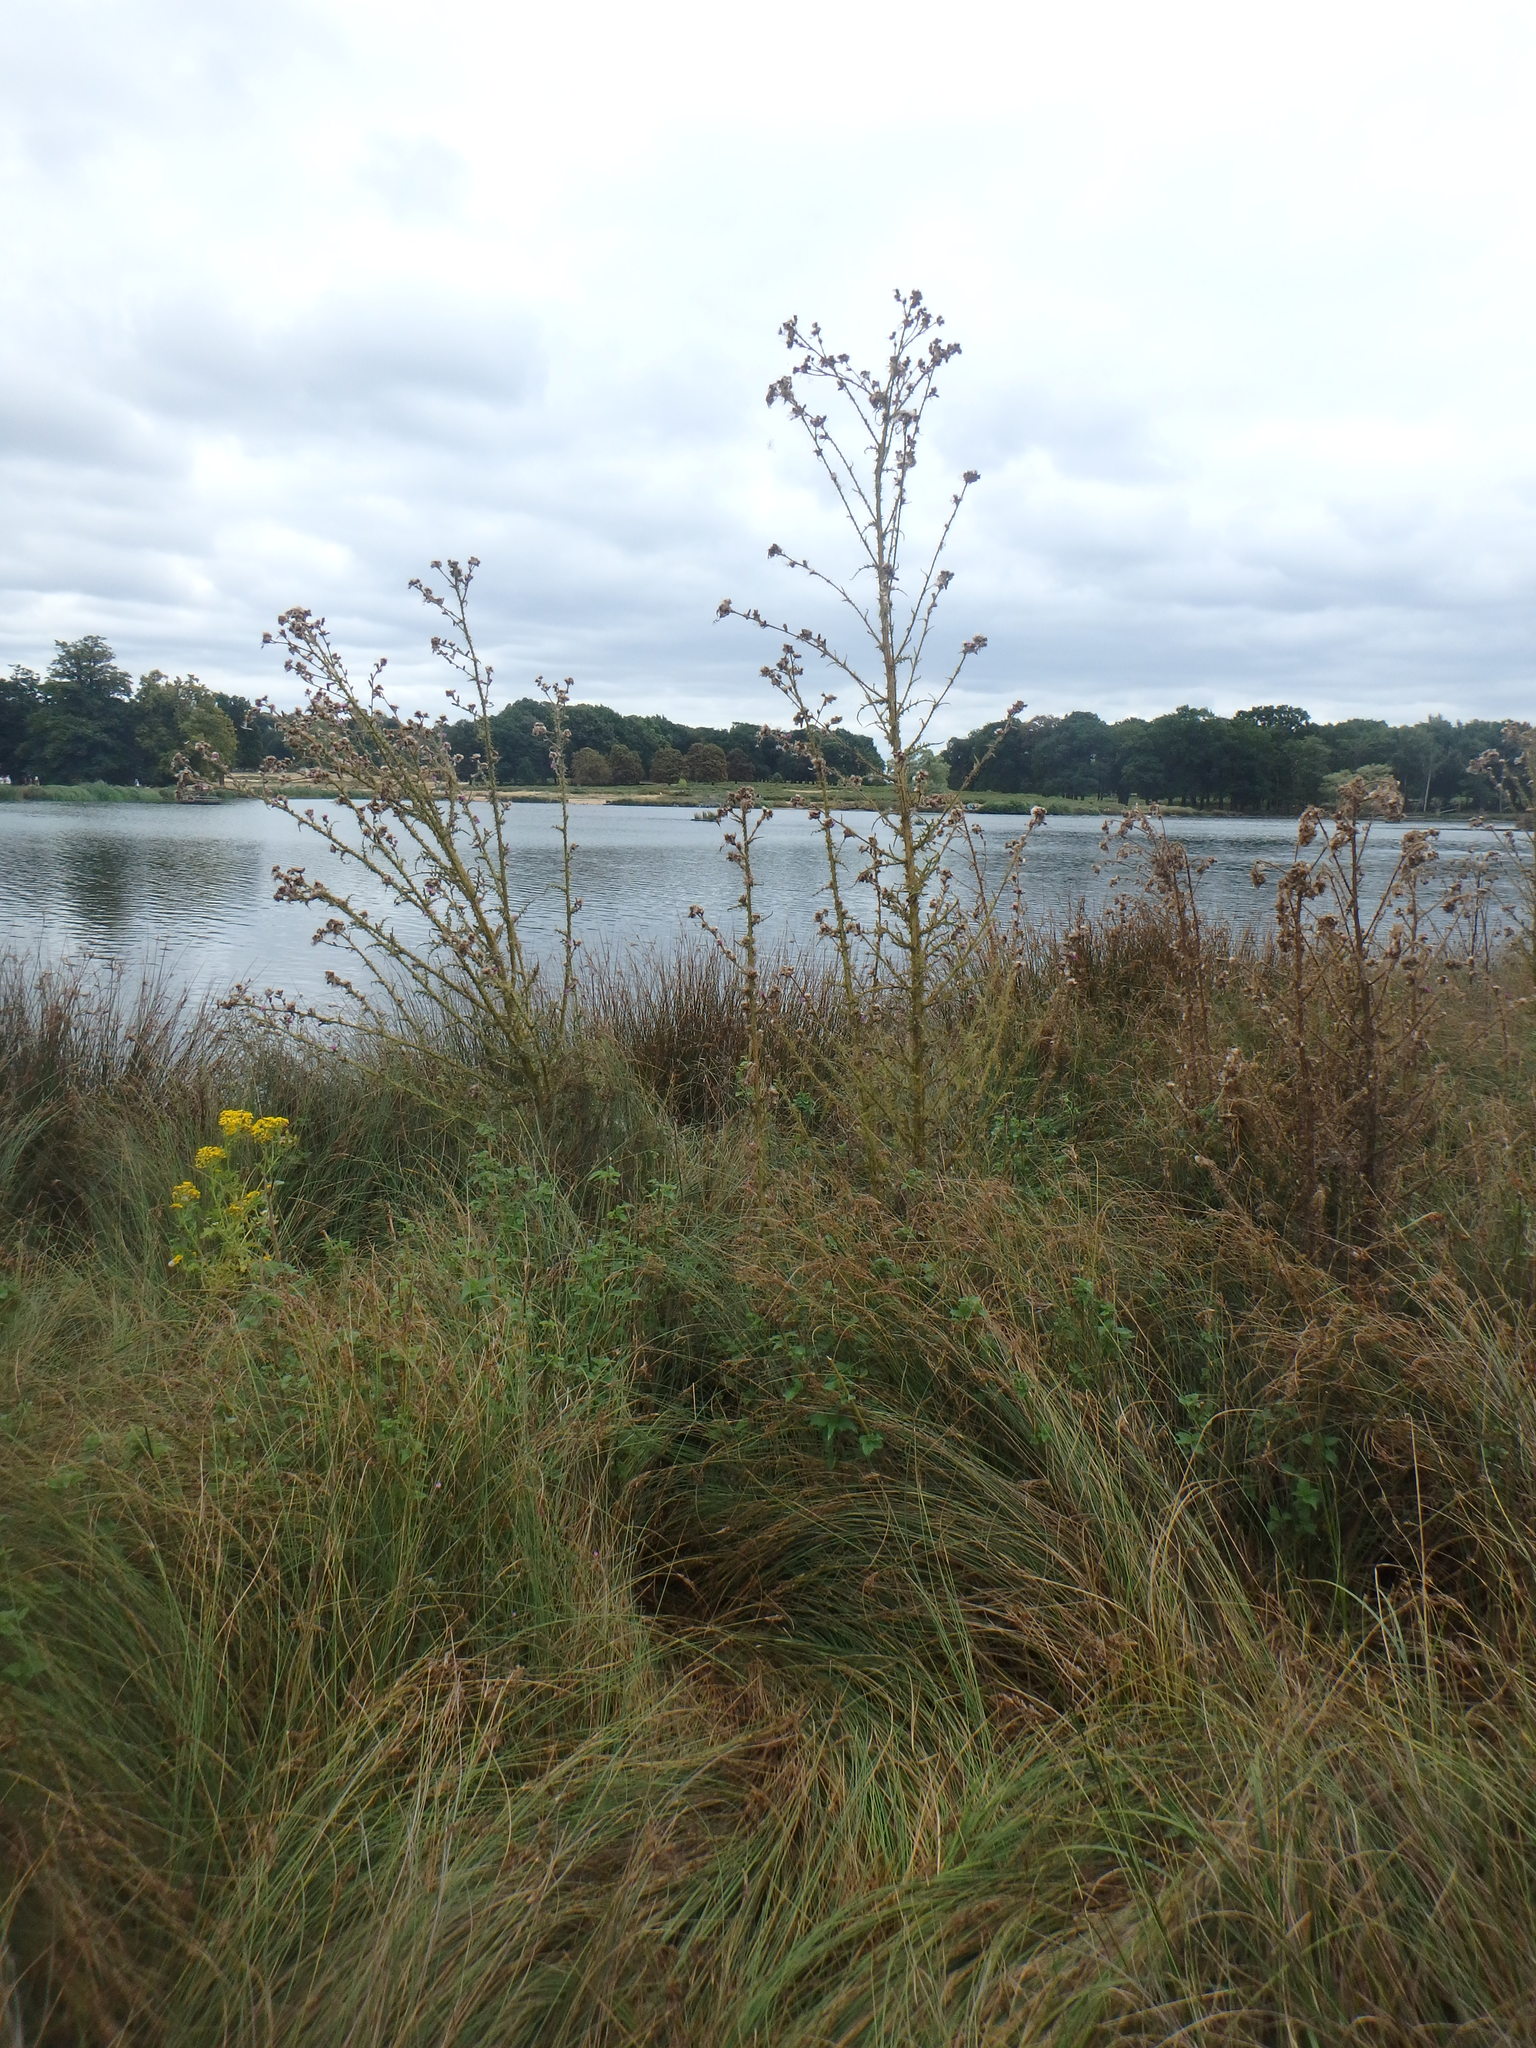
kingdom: Plantae
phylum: Tracheophyta
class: Magnoliopsida
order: Asterales
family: Asteraceae
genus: Cirsium
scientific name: Cirsium palustre
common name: Marsh thistle
